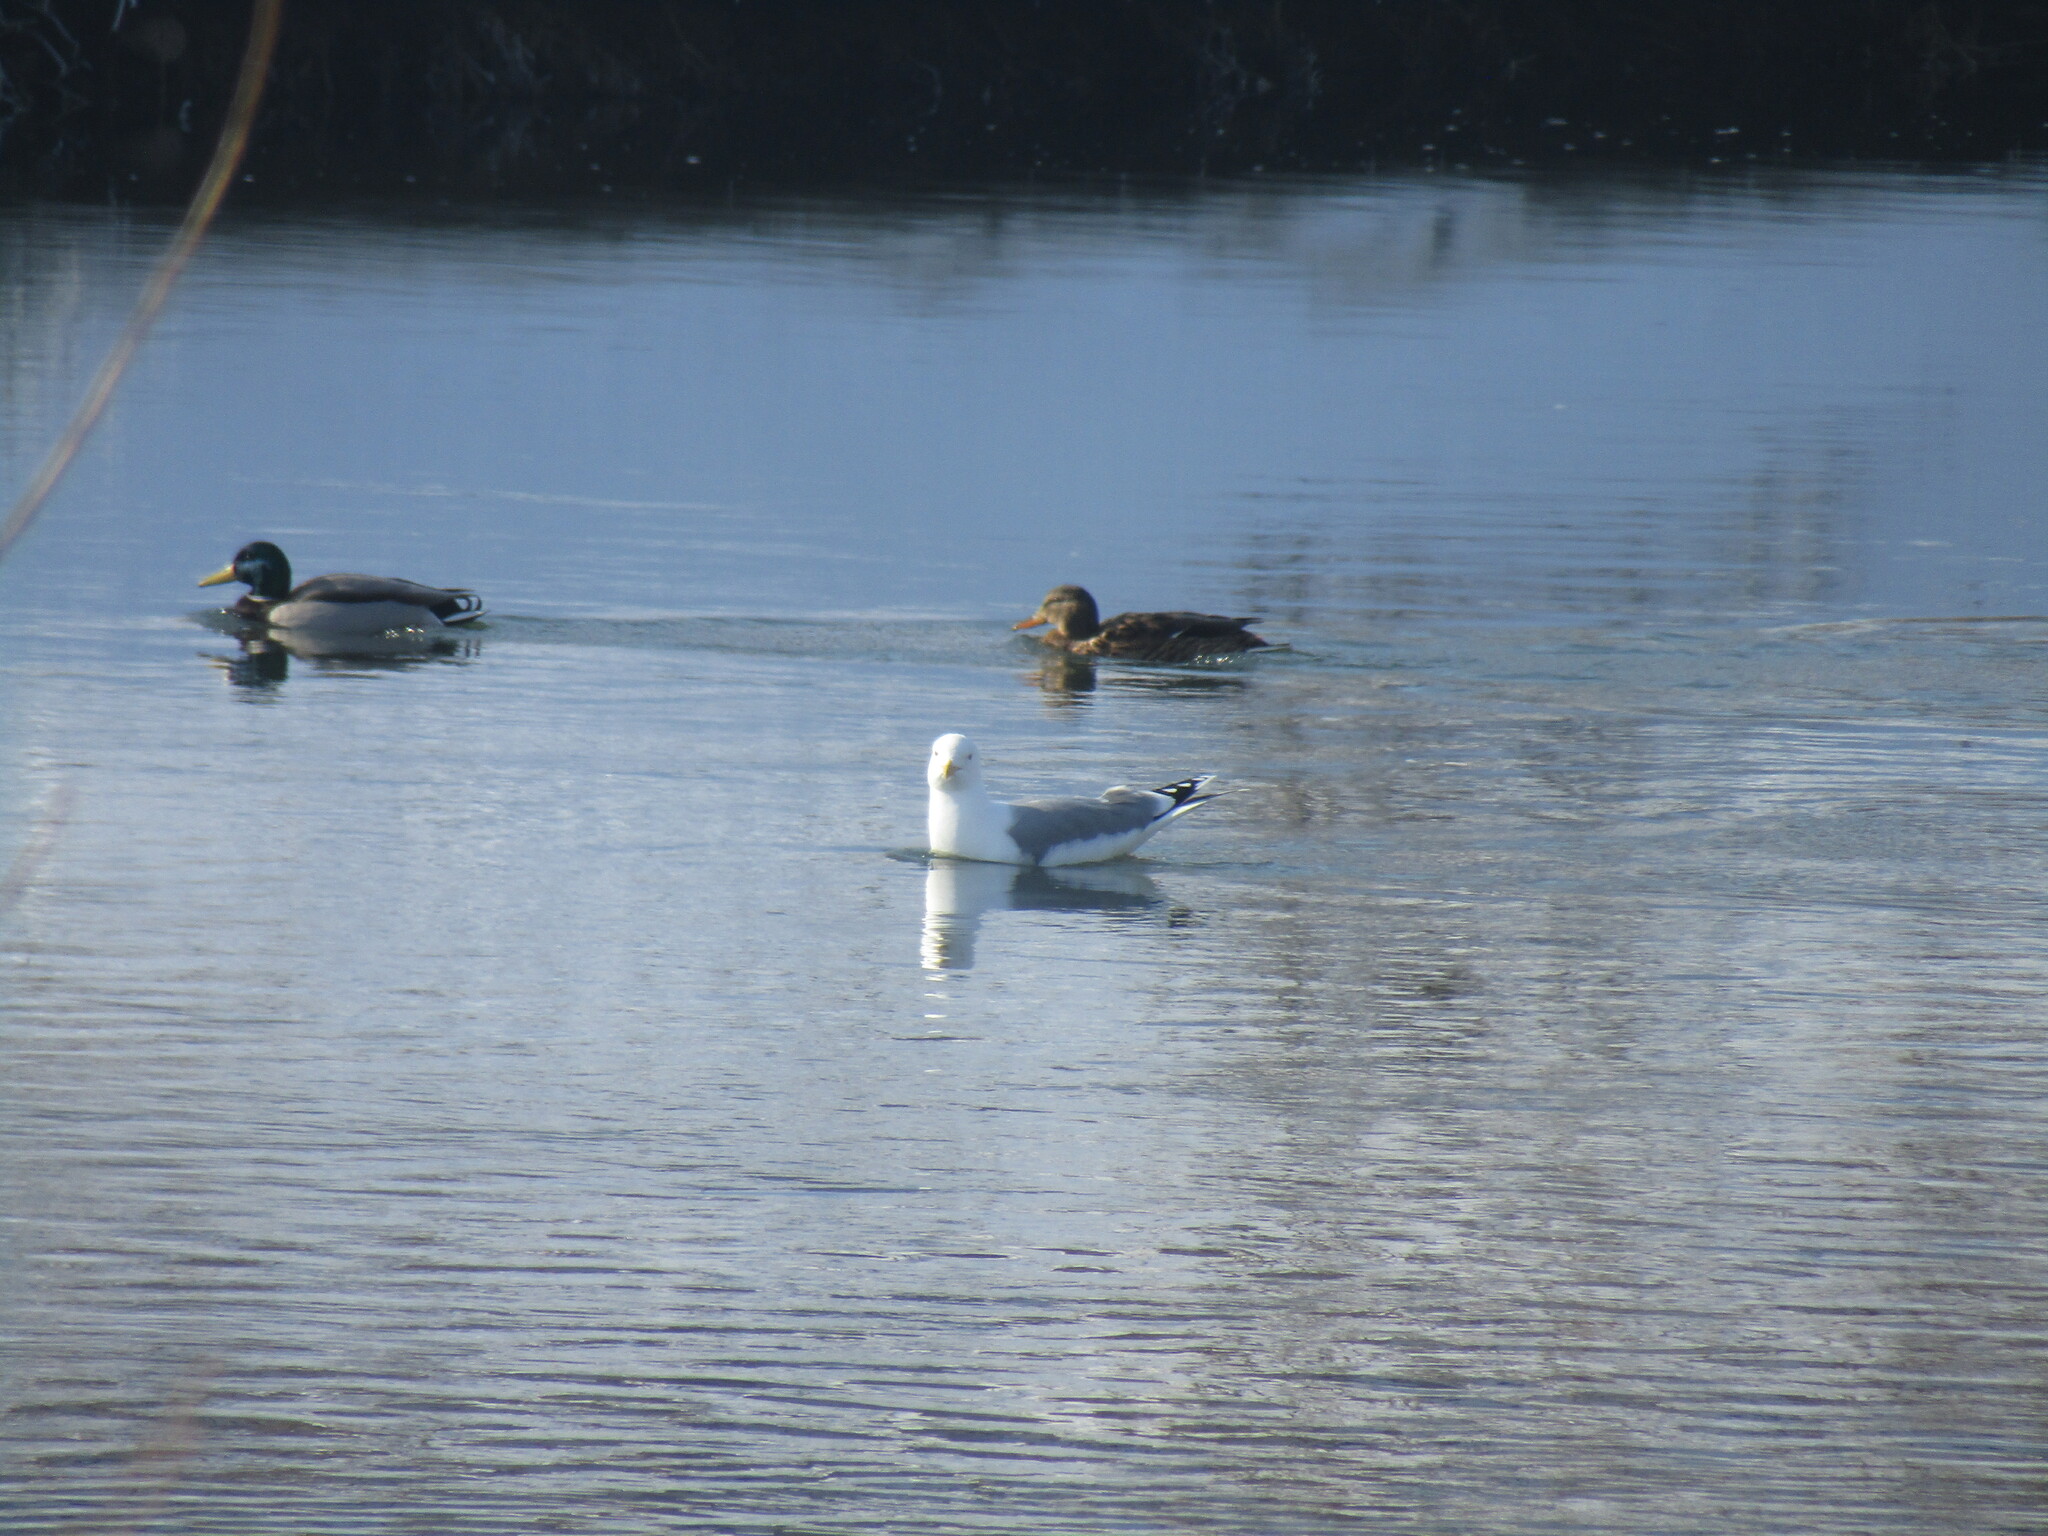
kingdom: Animalia
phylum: Chordata
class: Aves
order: Charadriiformes
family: Laridae
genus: Larus
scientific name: Larus cachinnans
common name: Caspian gull
